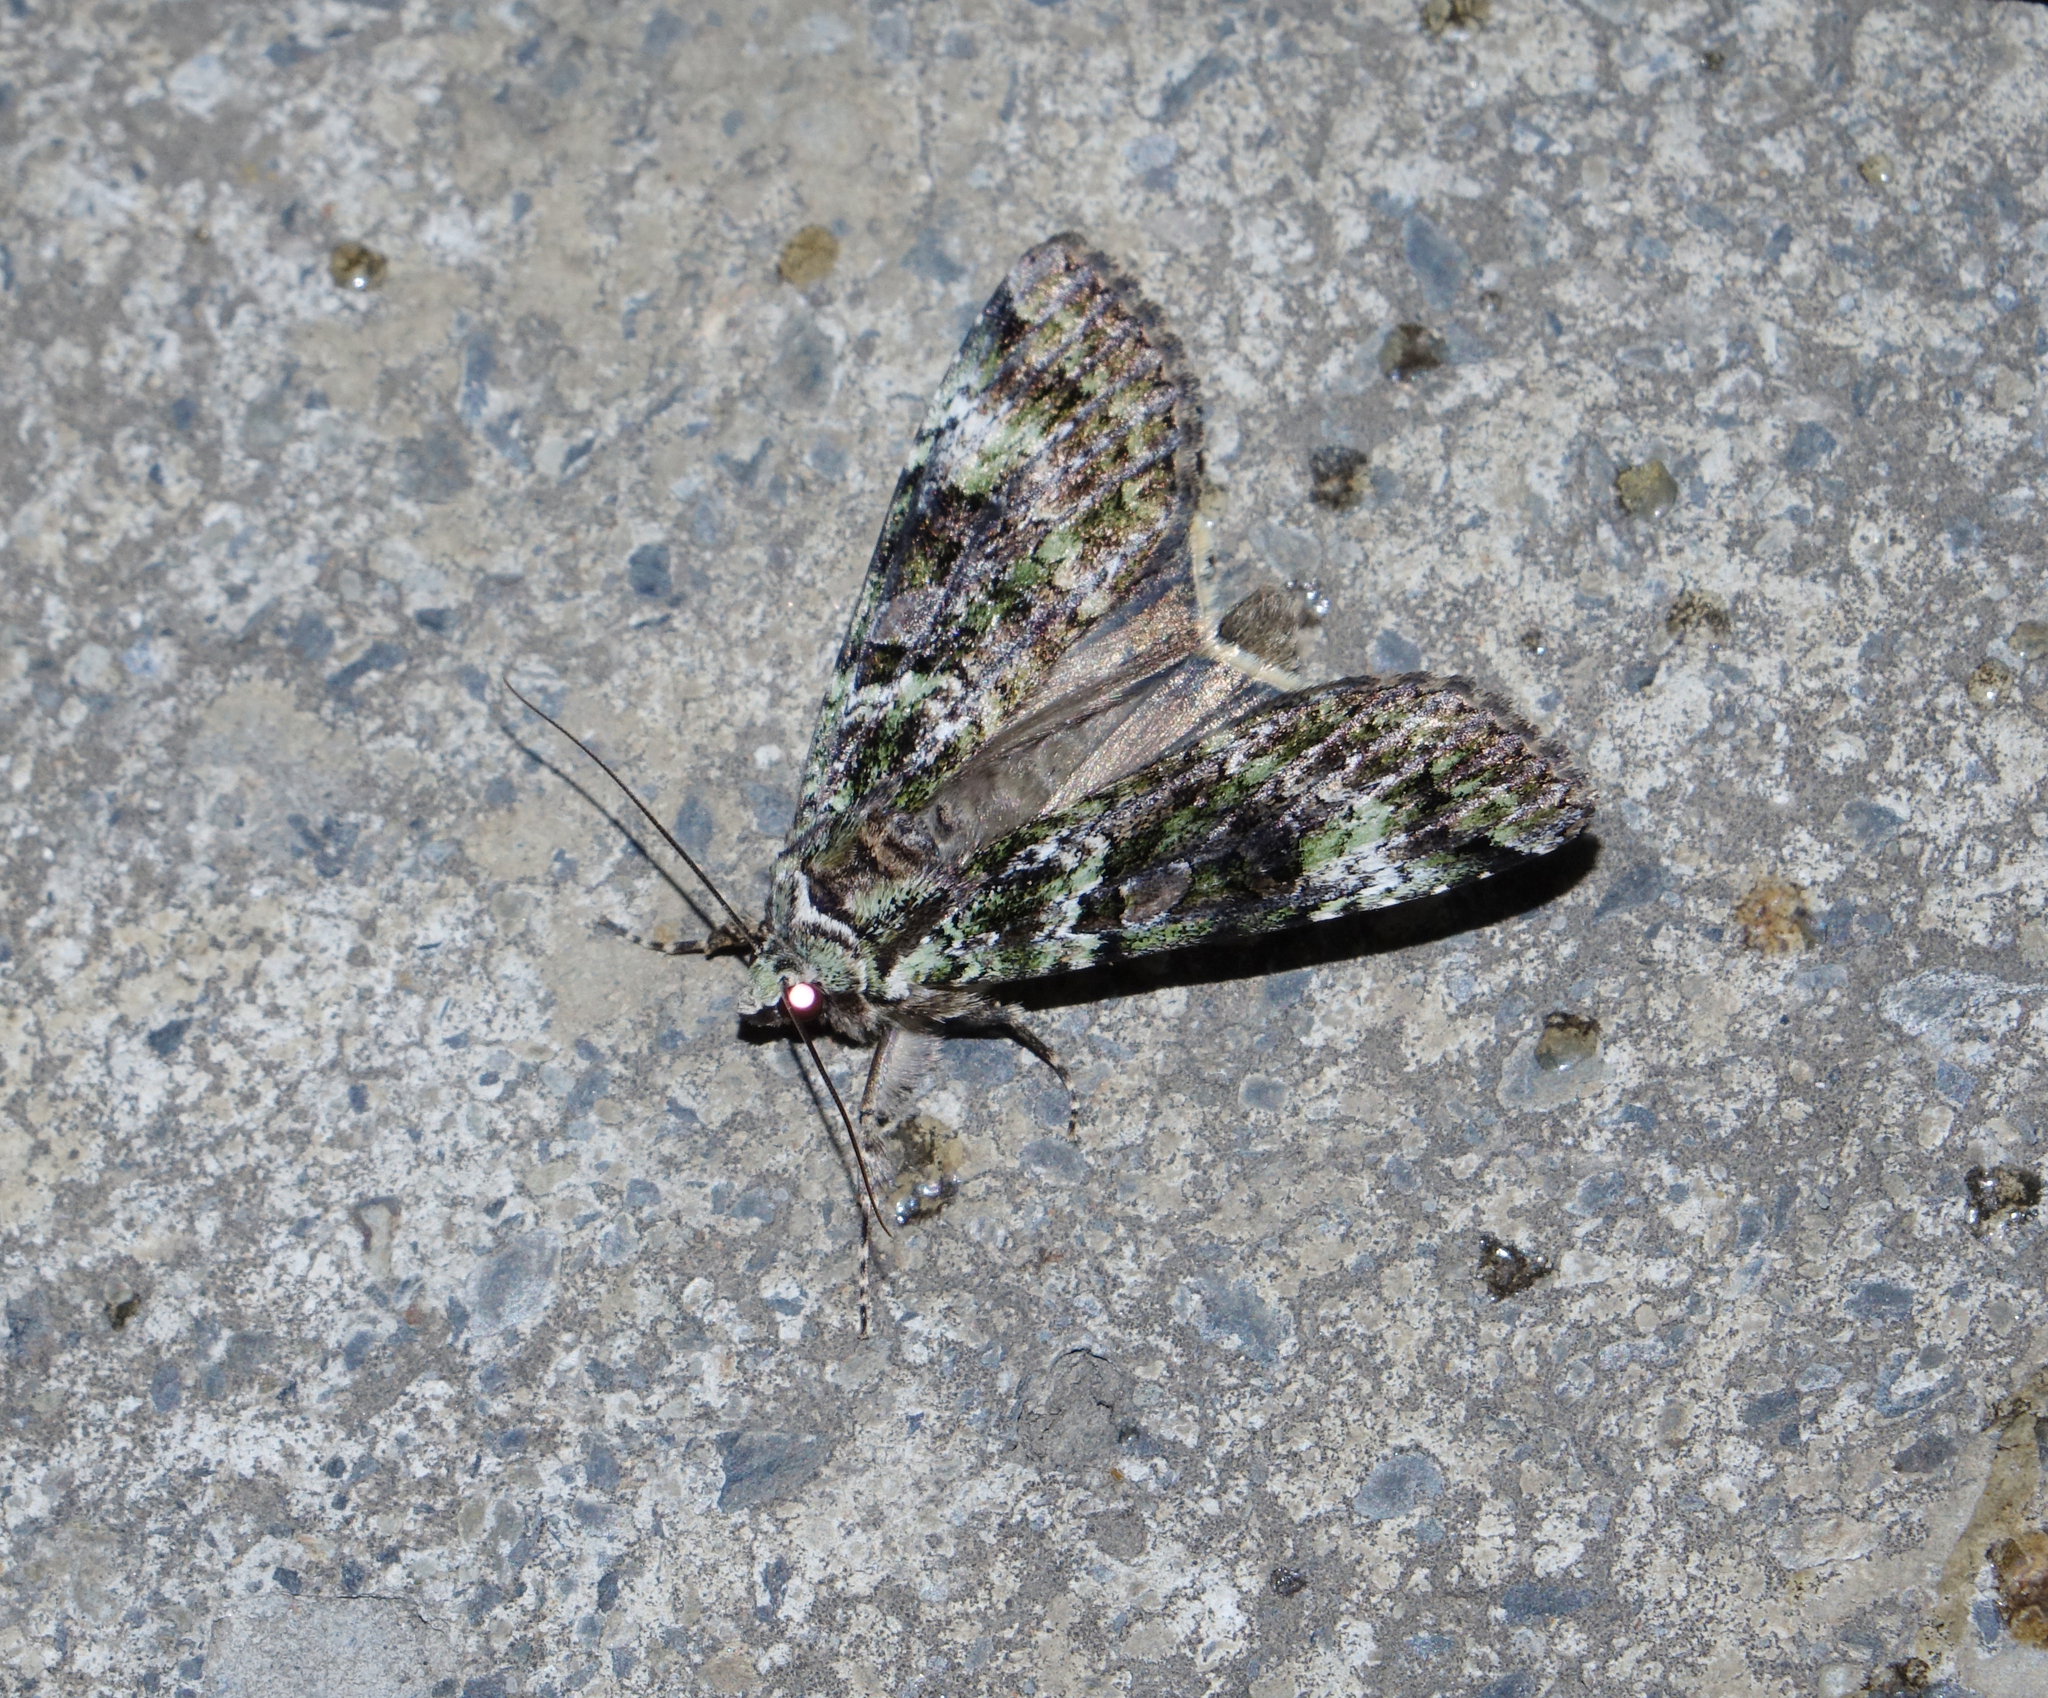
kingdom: Animalia
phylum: Arthropoda
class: Insecta
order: Lepidoptera
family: Noctuidae
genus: Anaplectoides
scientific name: Anaplectoides prasina
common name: Green arches
